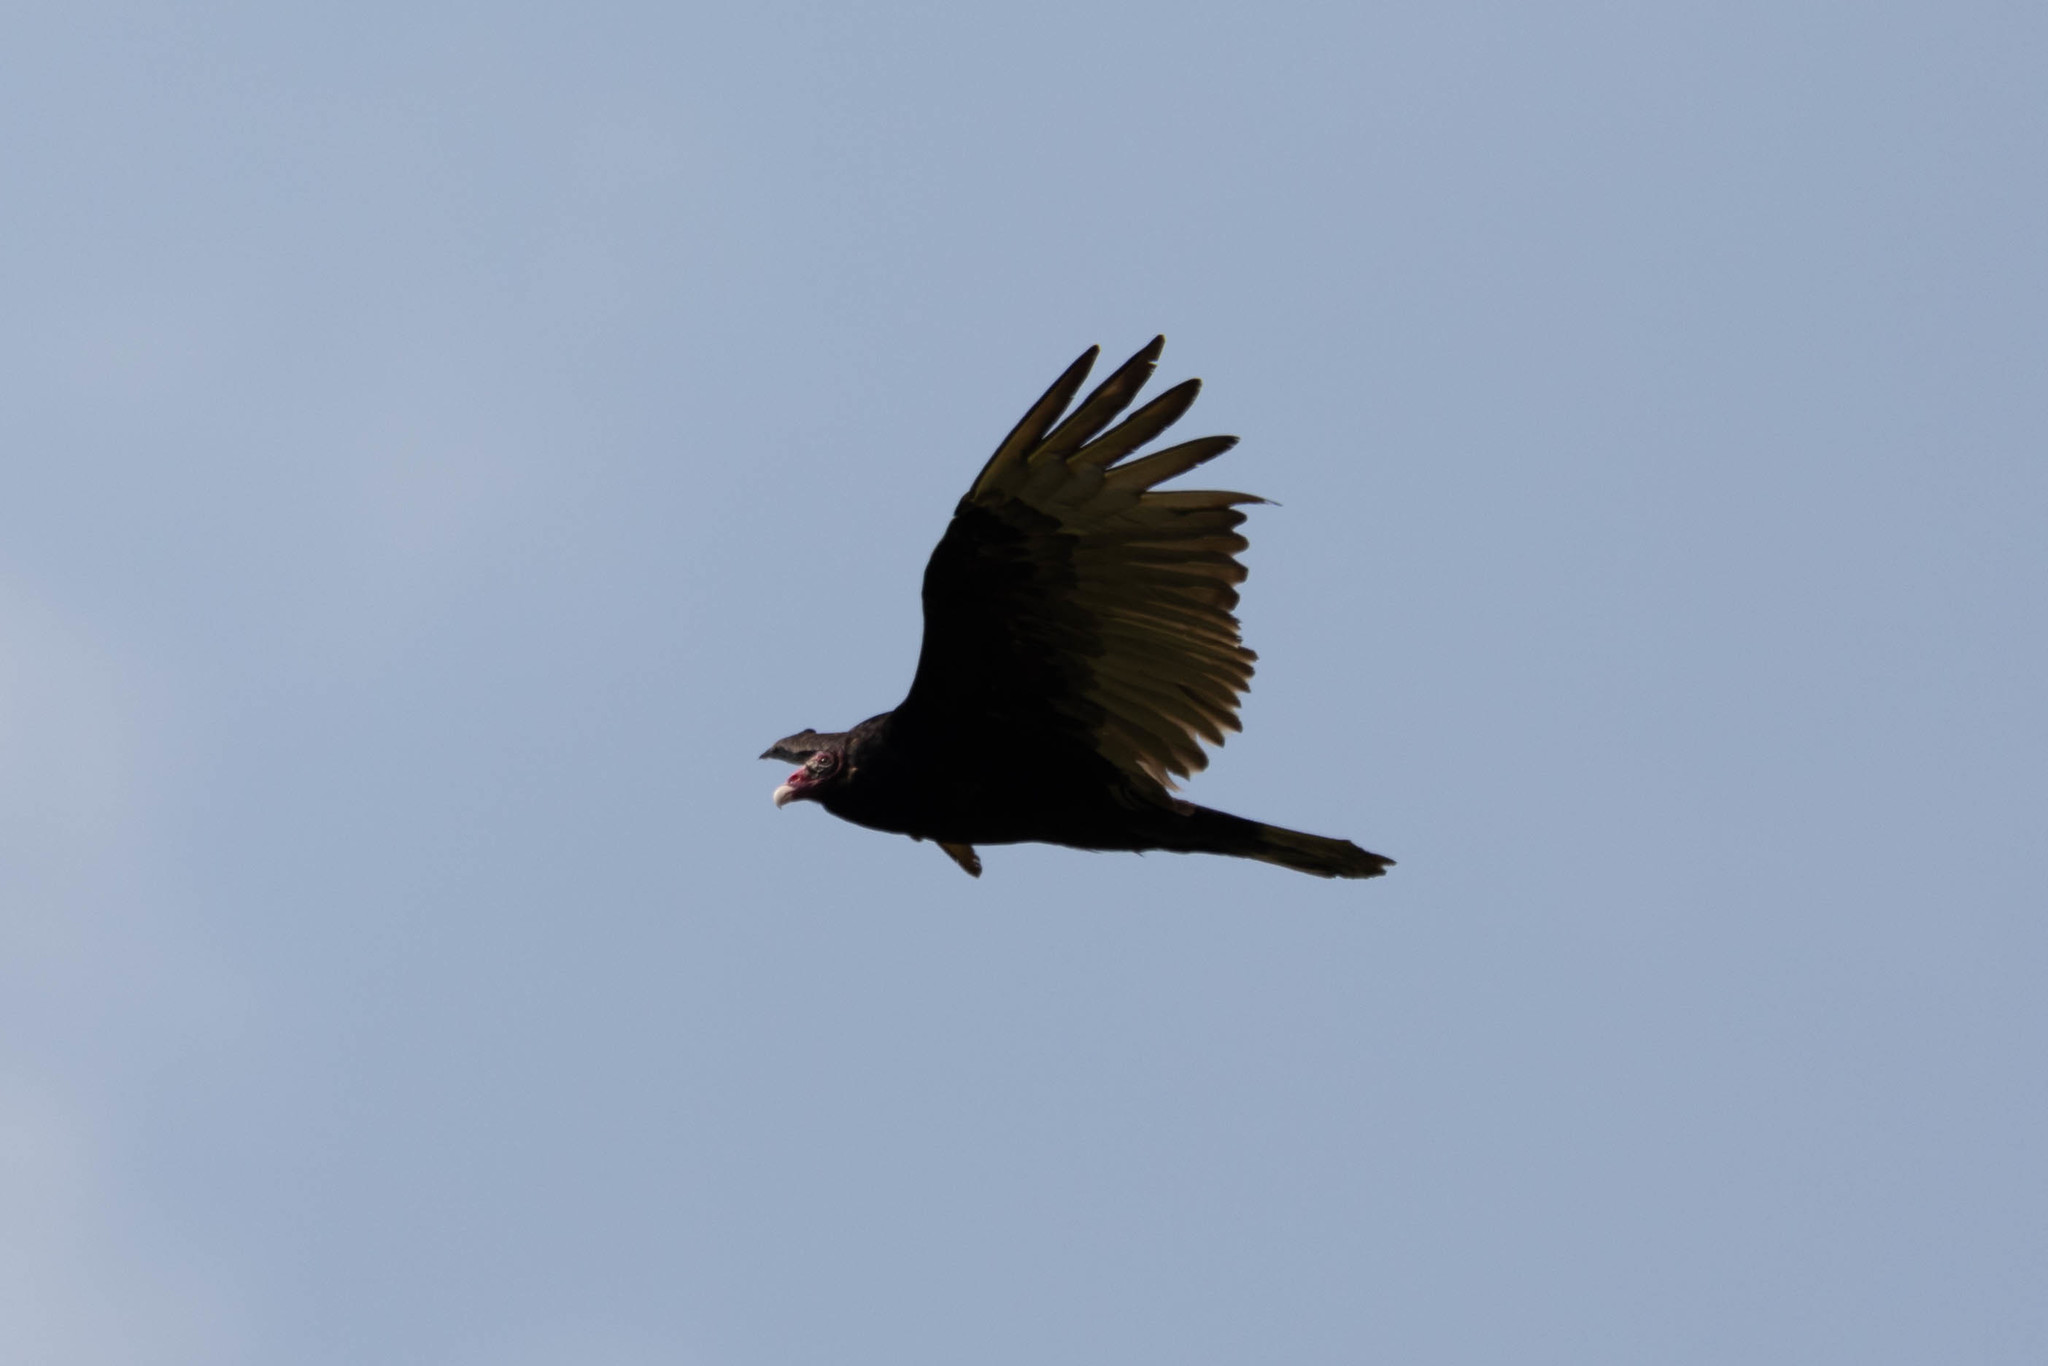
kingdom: Animalia
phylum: Chordata
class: Aves
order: Accipitriformes
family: Cathartidae
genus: Cathartes
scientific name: Cathartes aura
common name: Turkey vulture
